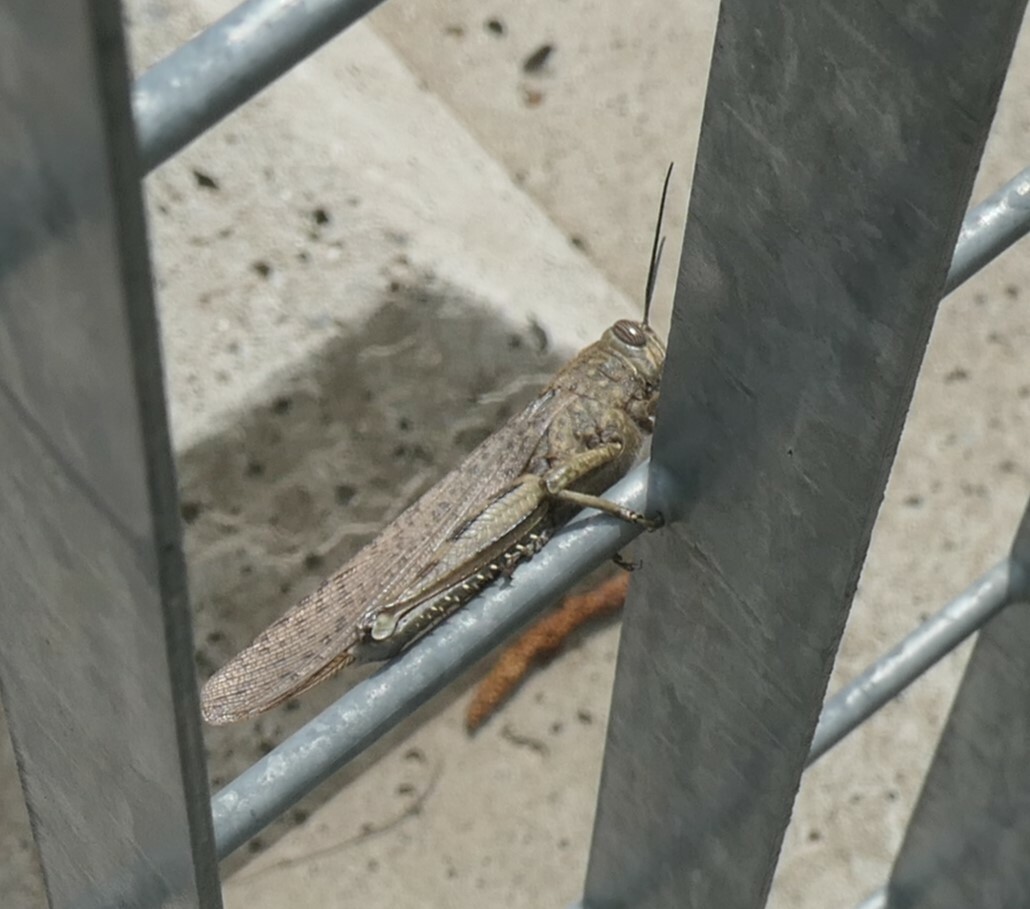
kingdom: Animalia
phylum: Arthropoda
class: Insecta
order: Orthoptera
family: Acrididae
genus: Anacridium
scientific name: Anacridium aegyptium
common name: Egyptian grasshopper
